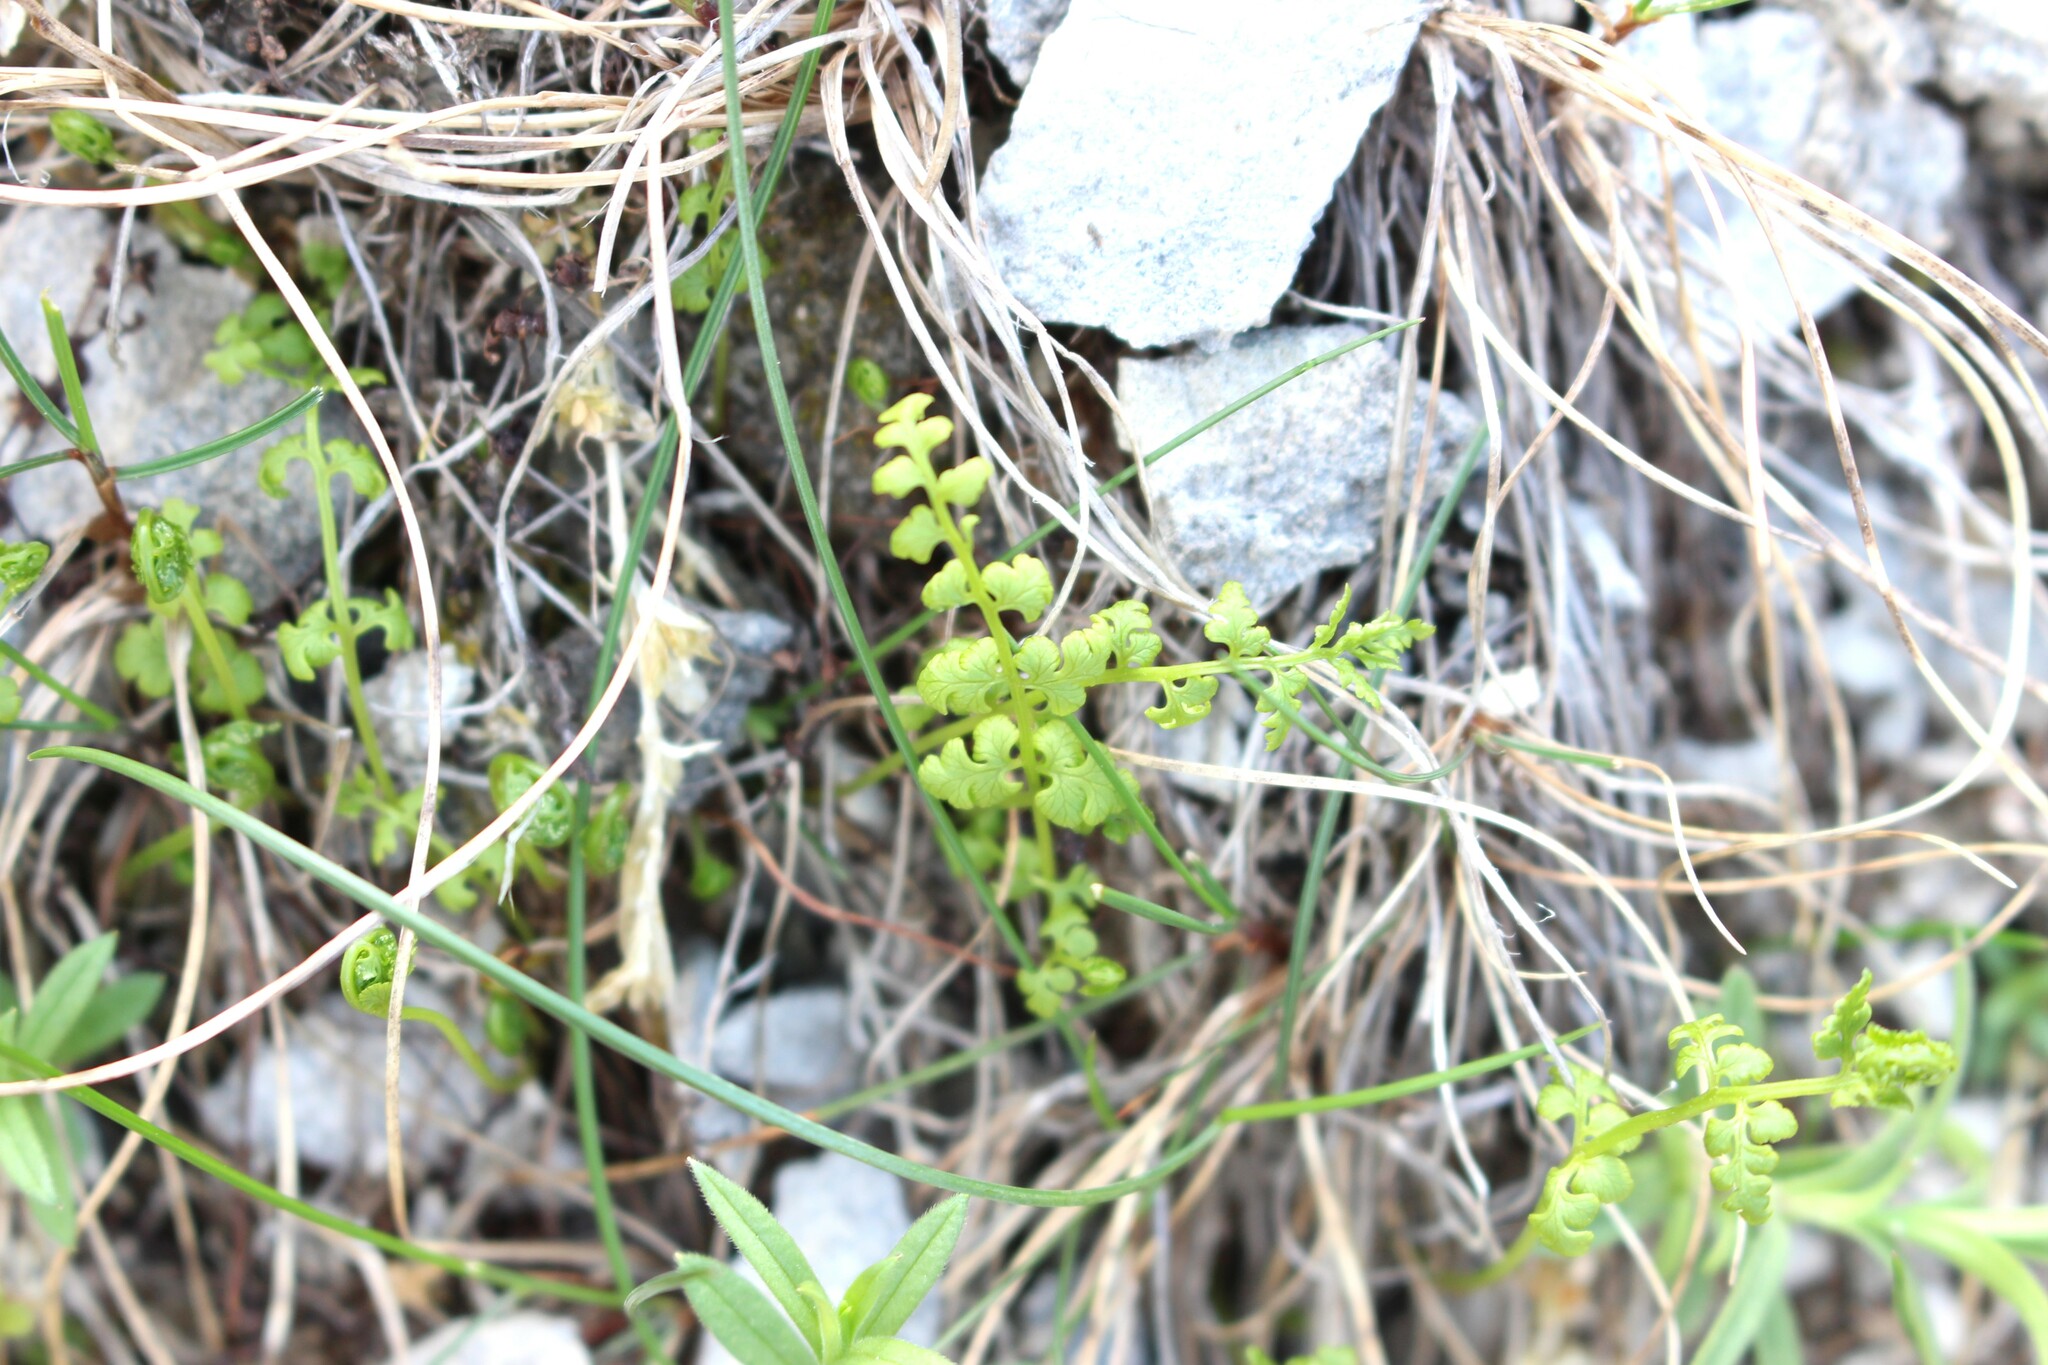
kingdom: Plantae
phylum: Tracheophyta
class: Polypodiopsida
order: Polypodiales
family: Cystopteridaceae
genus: Cystopteris
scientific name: Cystopteris tasmanica
